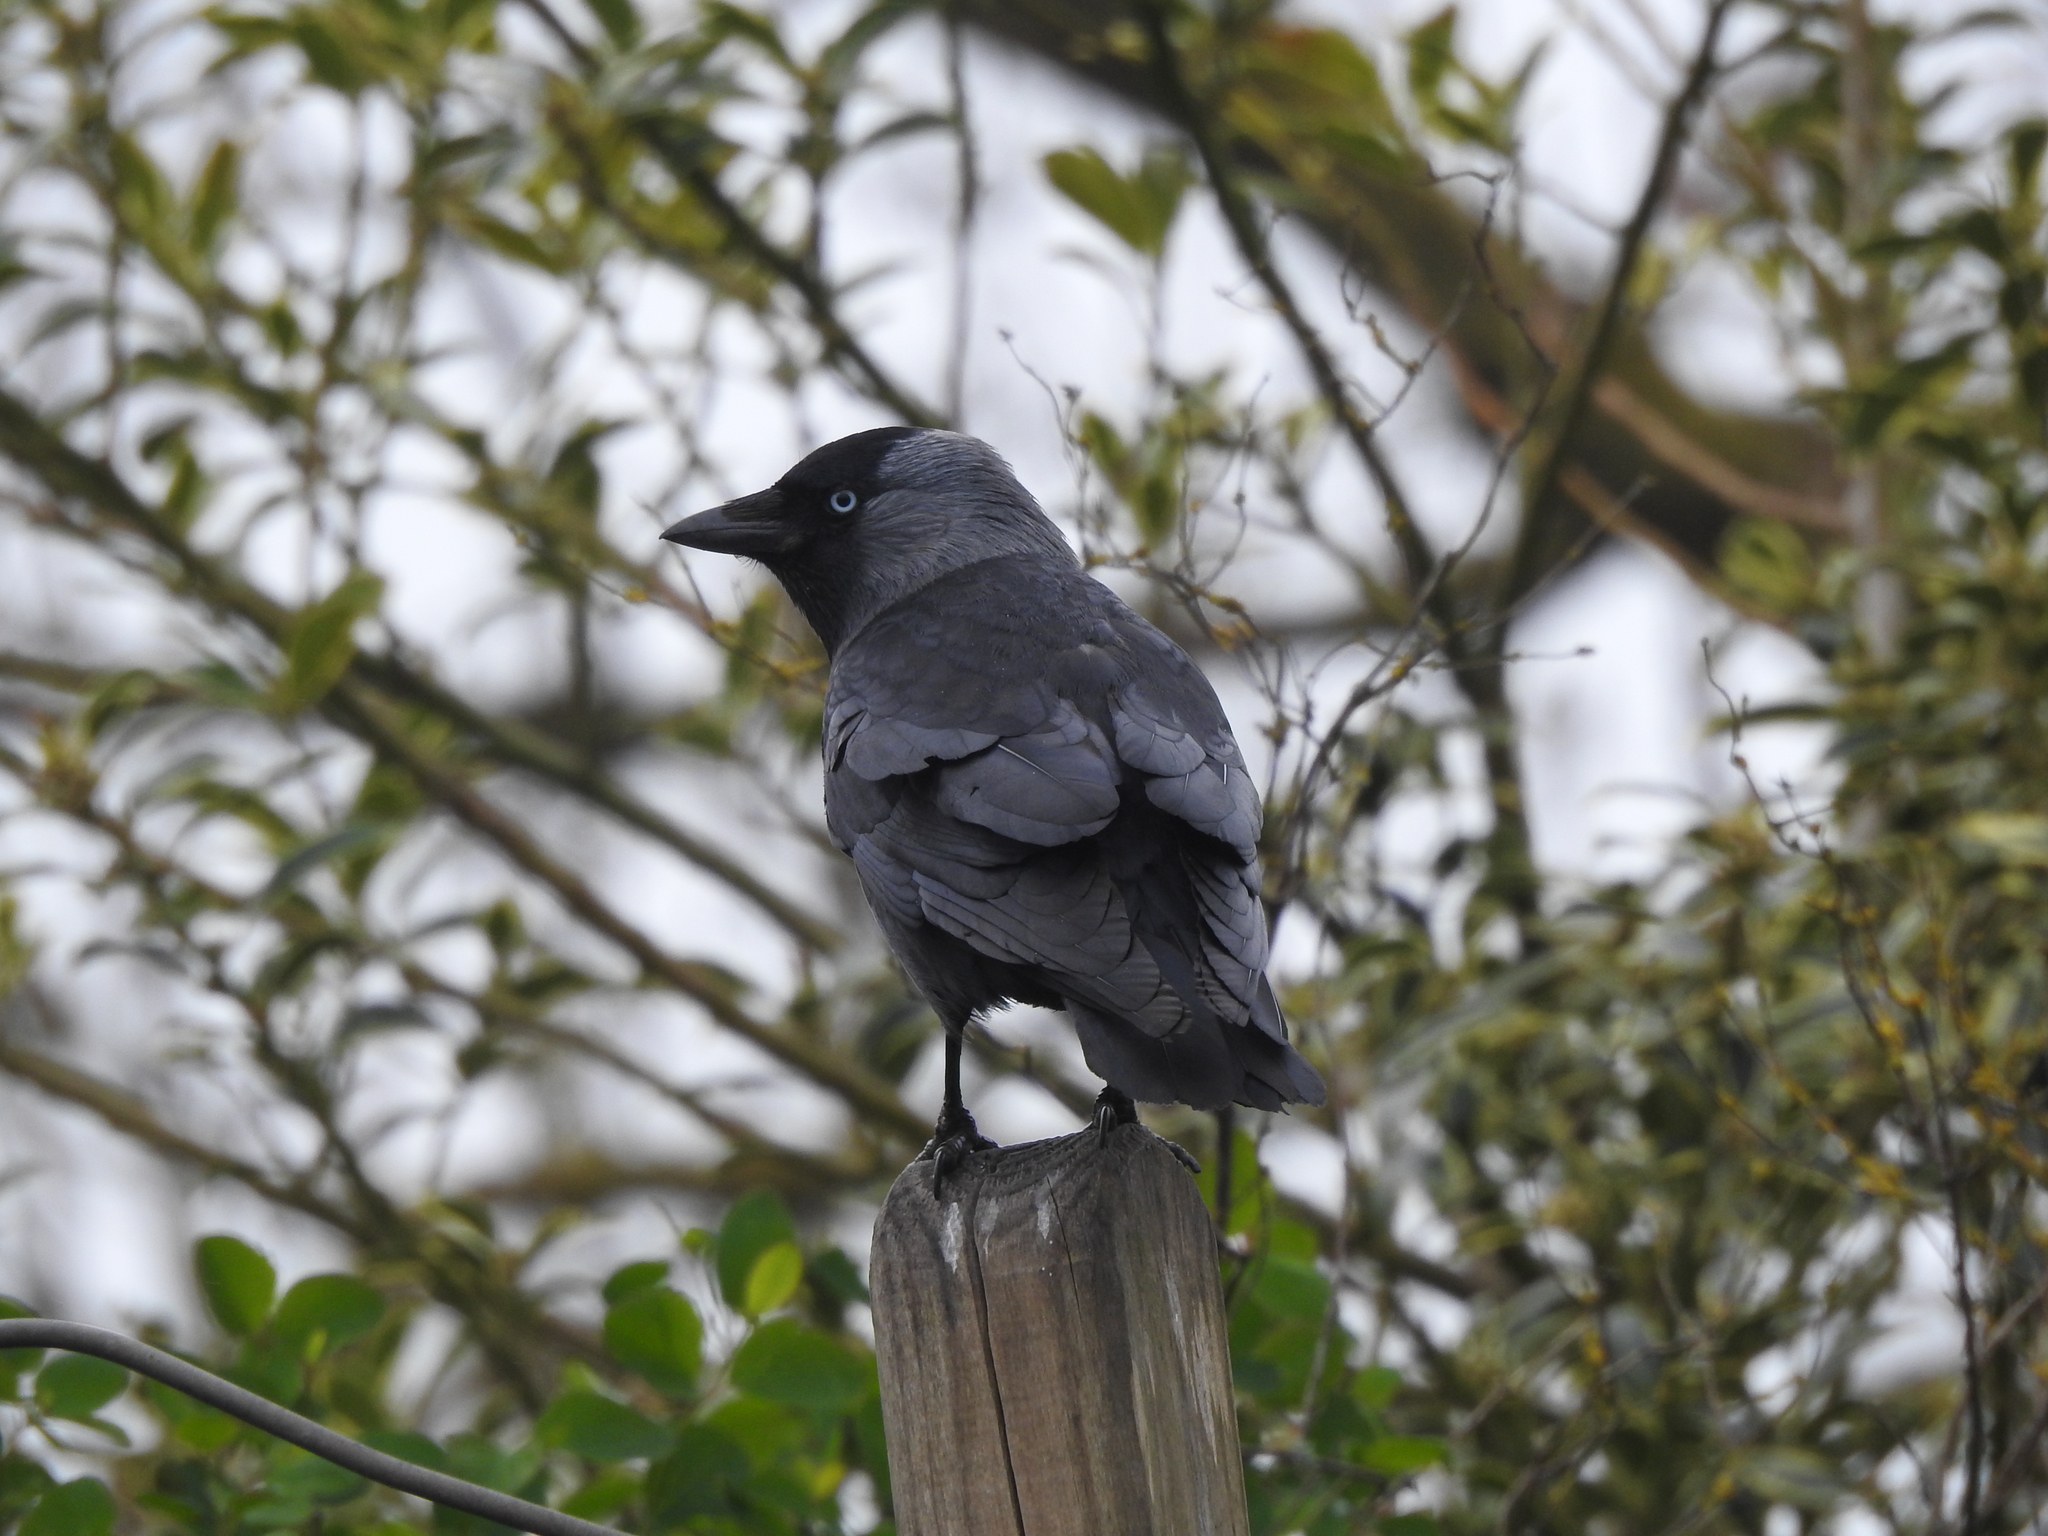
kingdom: Animalia
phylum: Chordata
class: Aves
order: Passeriformes
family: Corvidae
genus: Coloeus
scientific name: Coloeus monedula
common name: Western jackdaw
